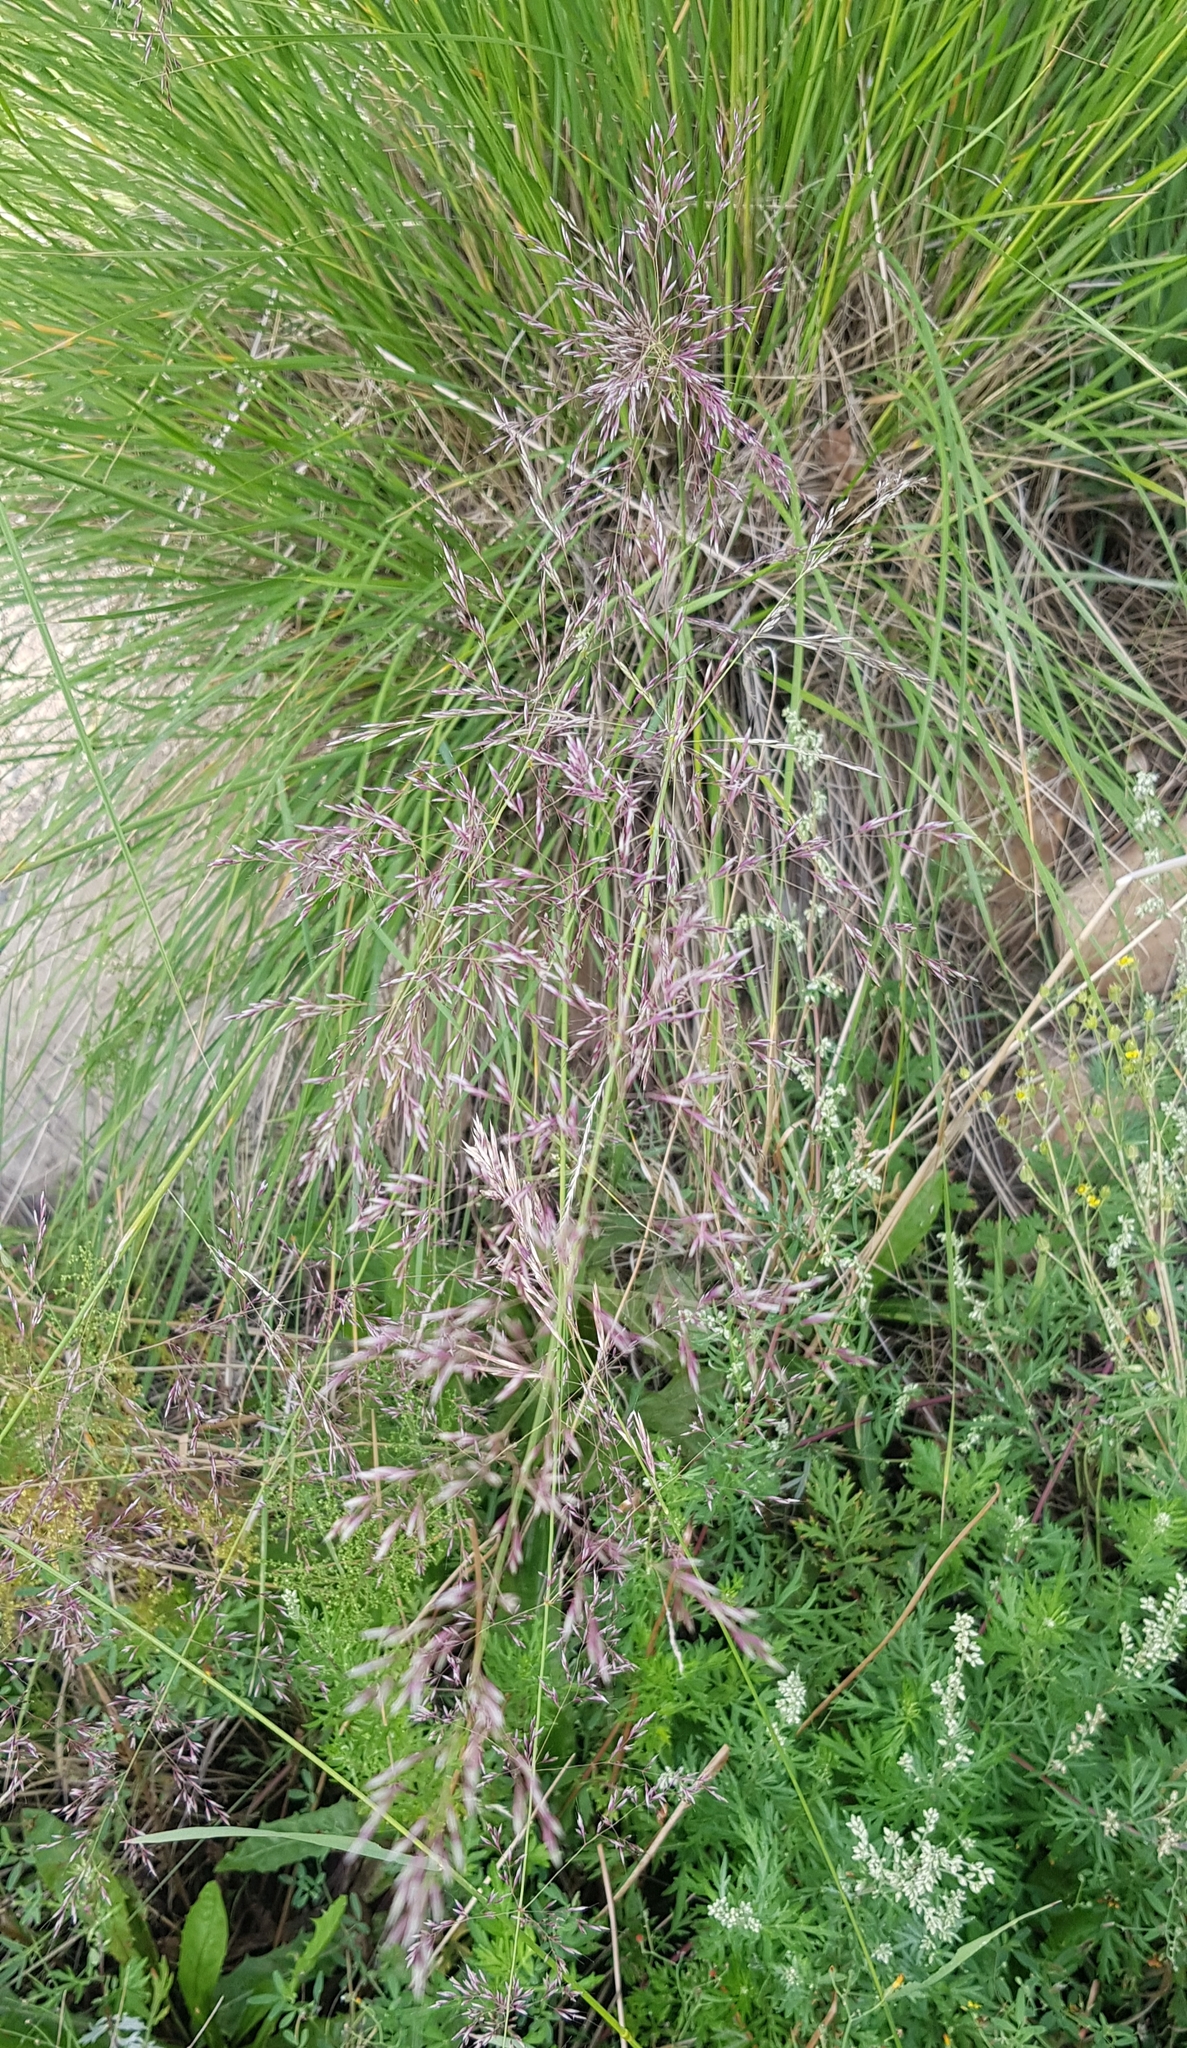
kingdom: Plantae
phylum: Tracheophyta
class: Liliopsida
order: Poales
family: Poaceae
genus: Neotrinia
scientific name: Neotrinia splendens
